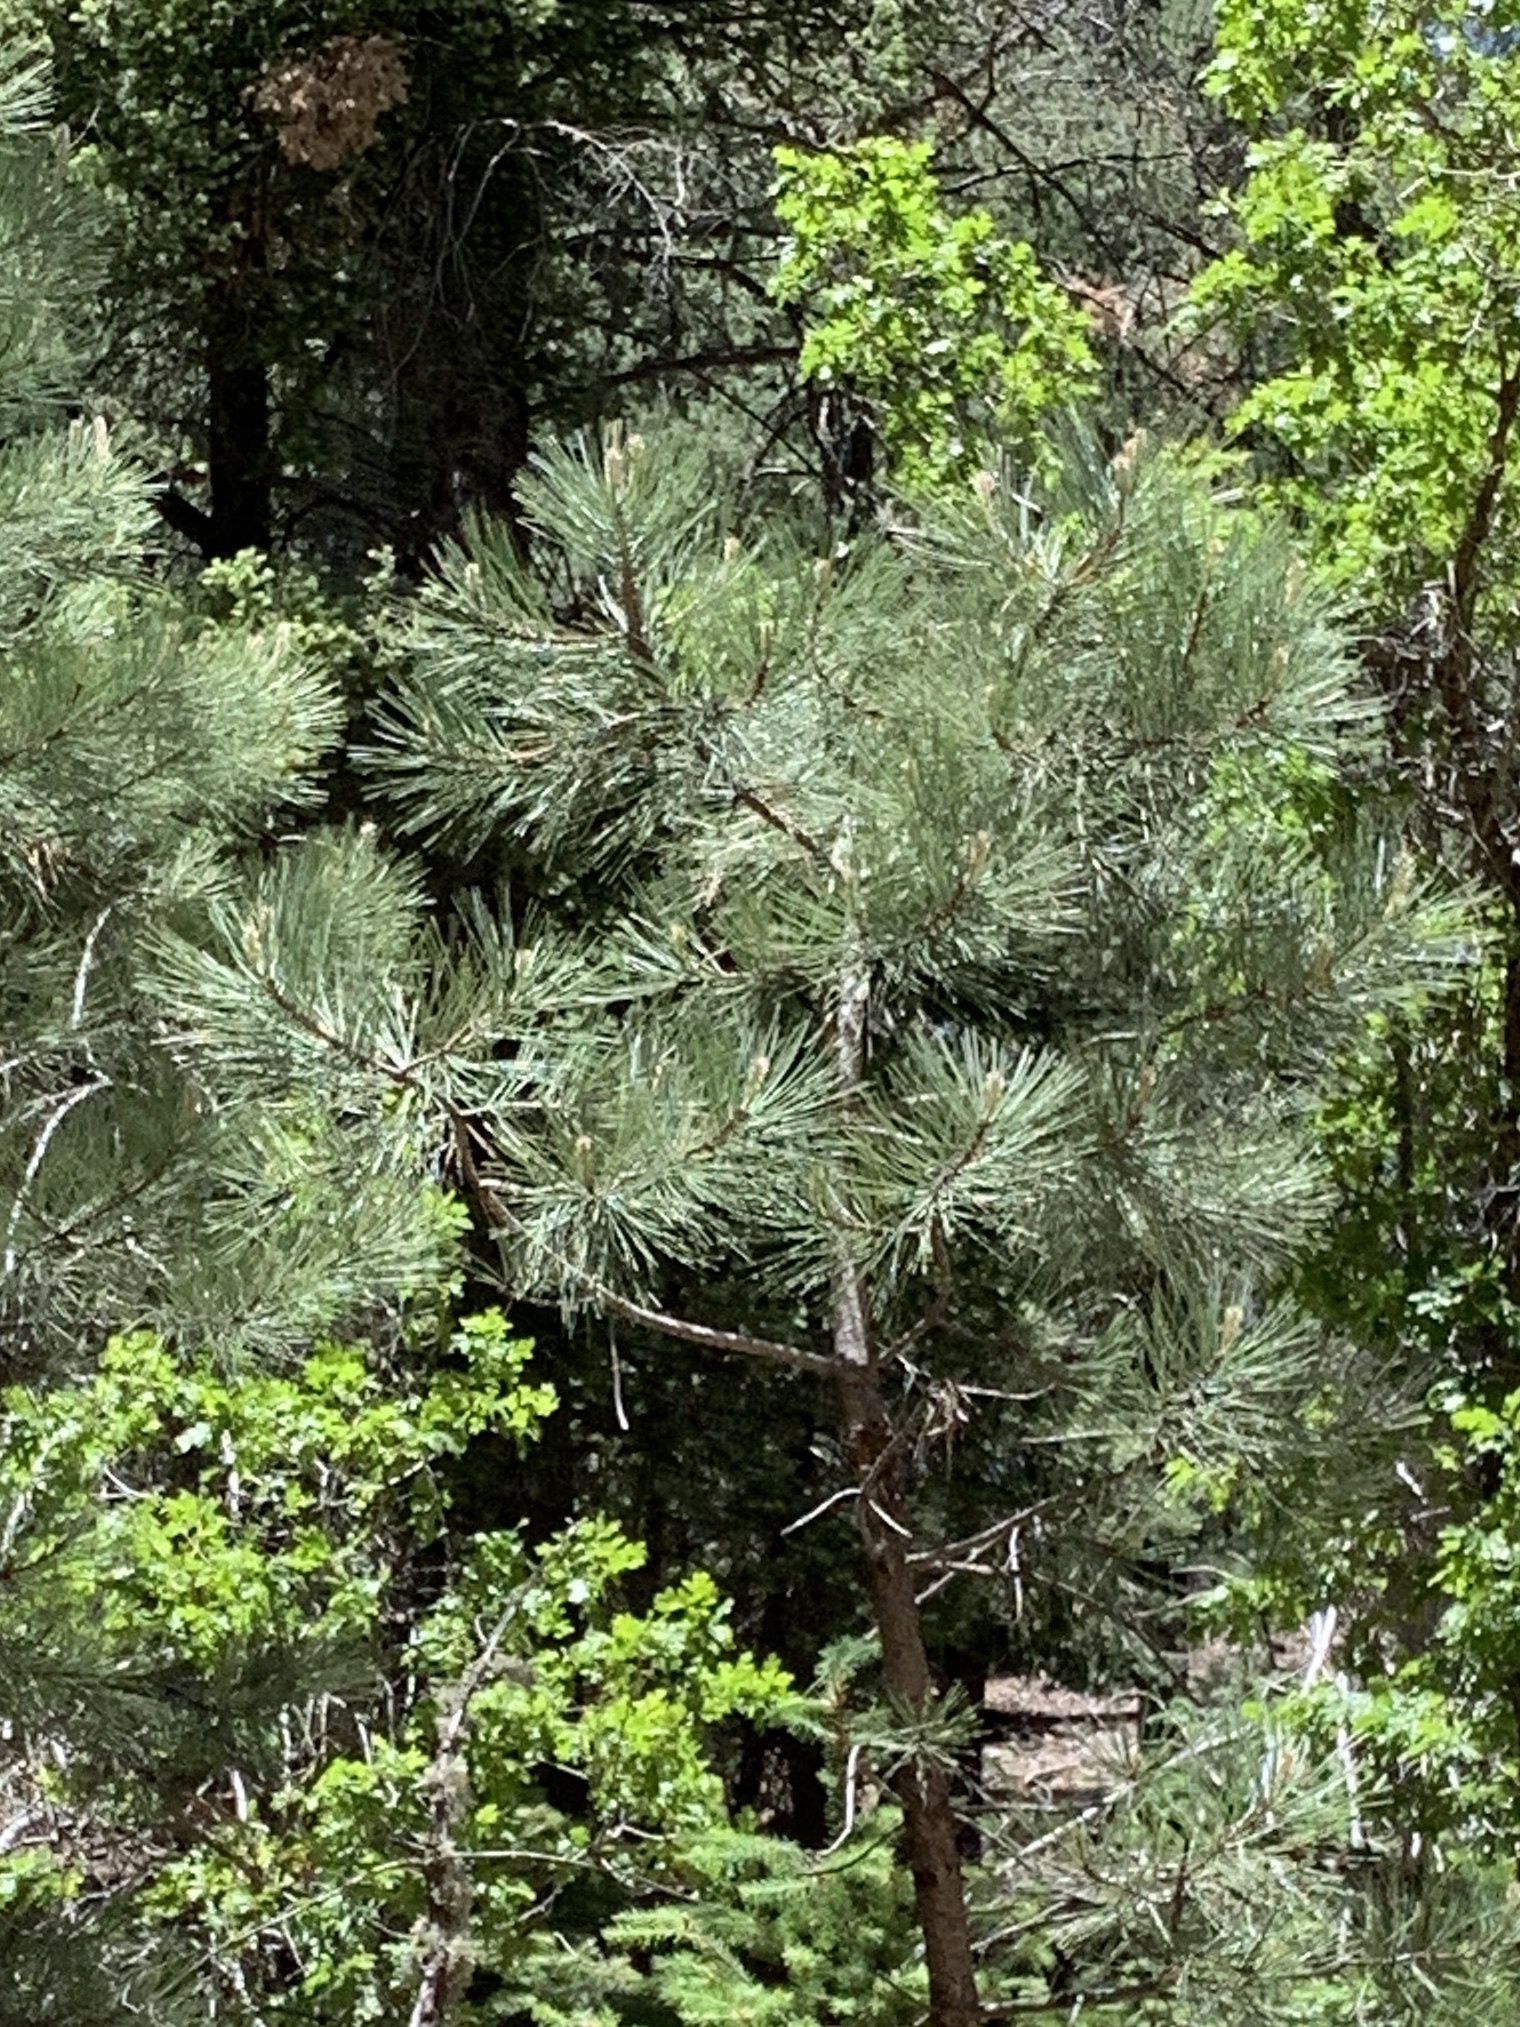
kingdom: Plantae
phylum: Tracheophyta
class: Pinopsida
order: Pinales
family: Pinaceae
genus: Pinus
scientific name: Pinus ponderosa
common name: Western yellow-pine
